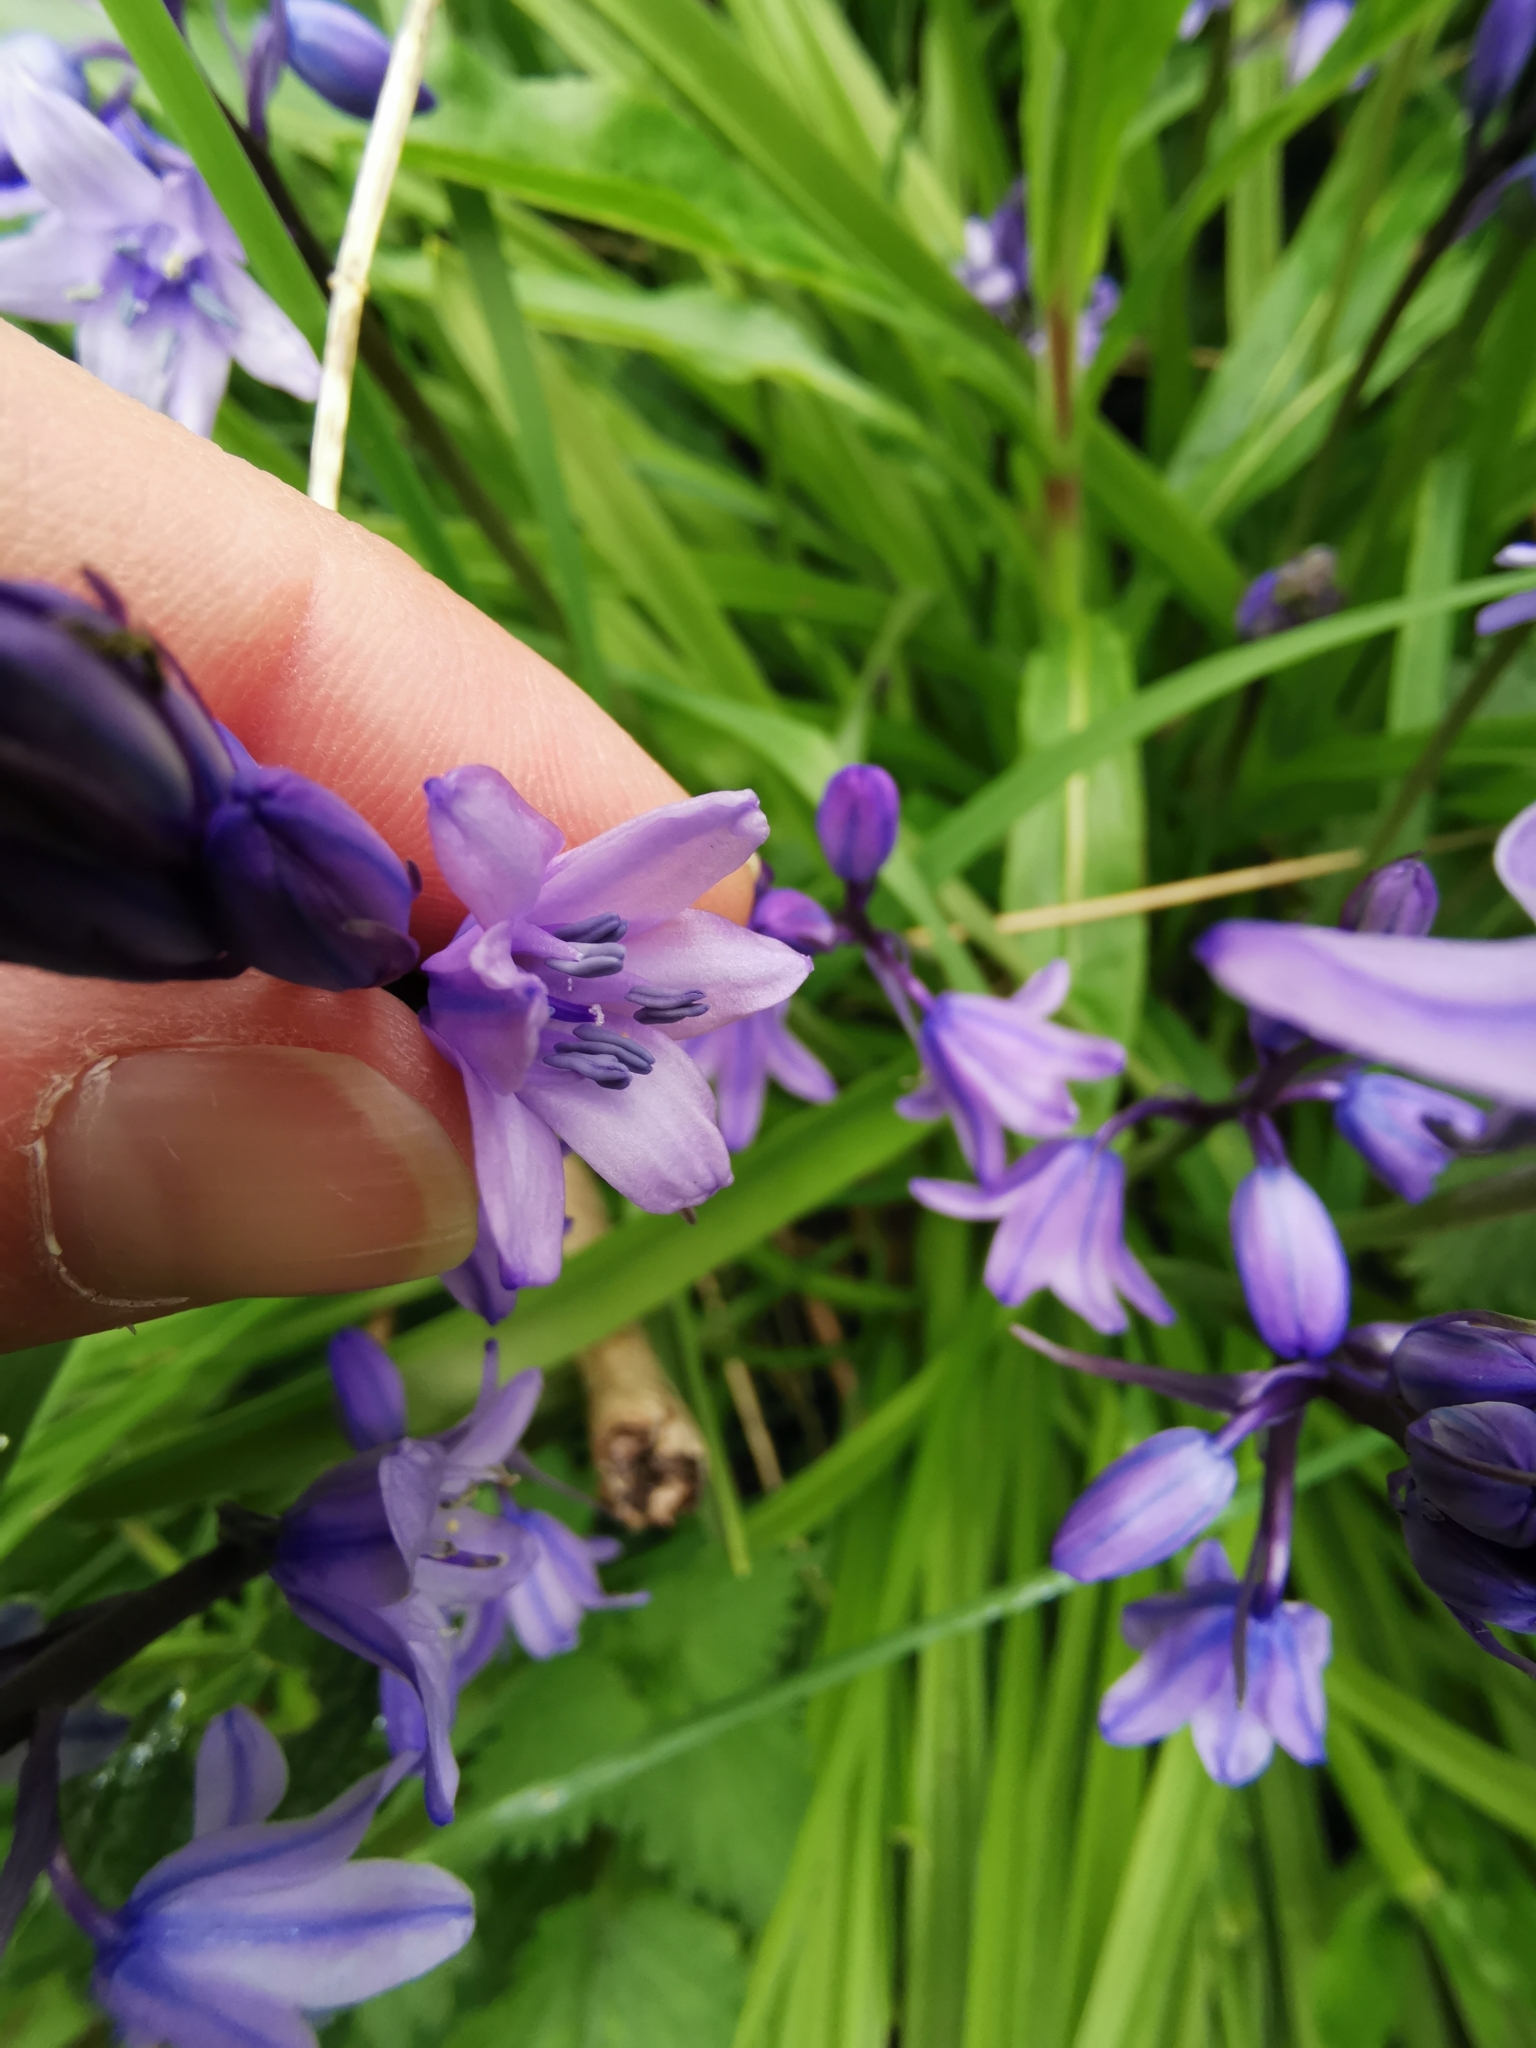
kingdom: Plantae
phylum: Tracheophyta
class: Liliopsida
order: Asparagales
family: Asparagaceae
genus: Hyacinthoides
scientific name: Hyacinthoides hispanica
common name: Spanish bluebell
